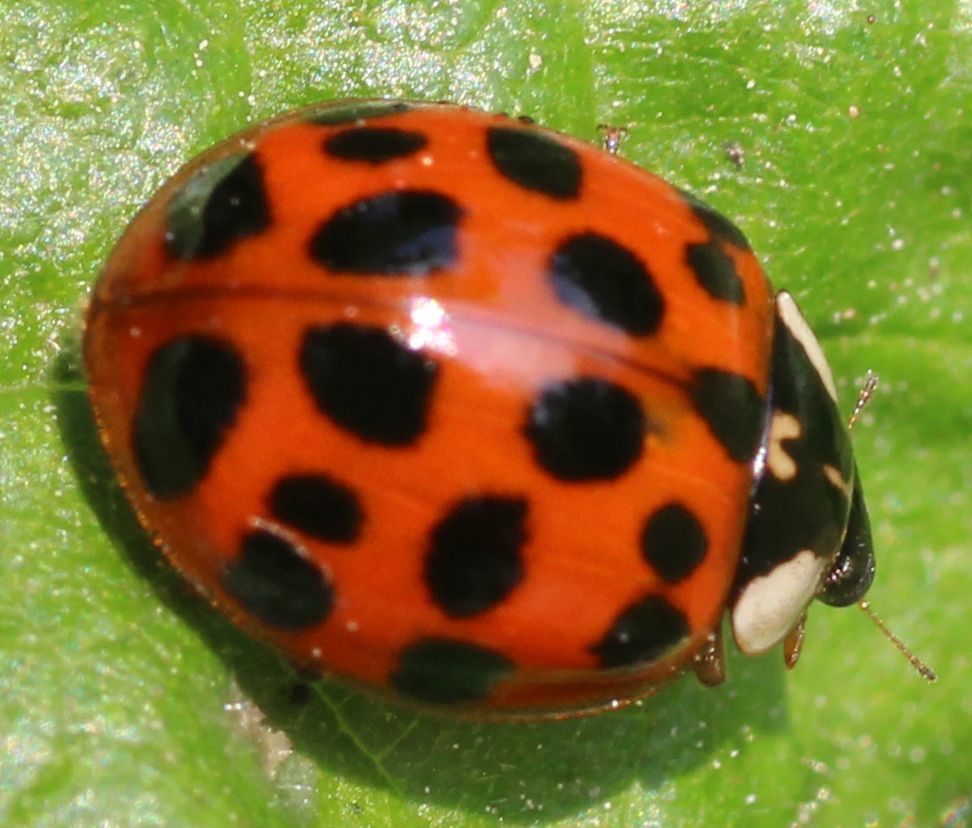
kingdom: Animalia
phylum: Arthropoda
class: Insecta
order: Coleoptera
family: Coccinellidae
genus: Harmonia
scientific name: Harmonia axyridis
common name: Harlequin ladybird
